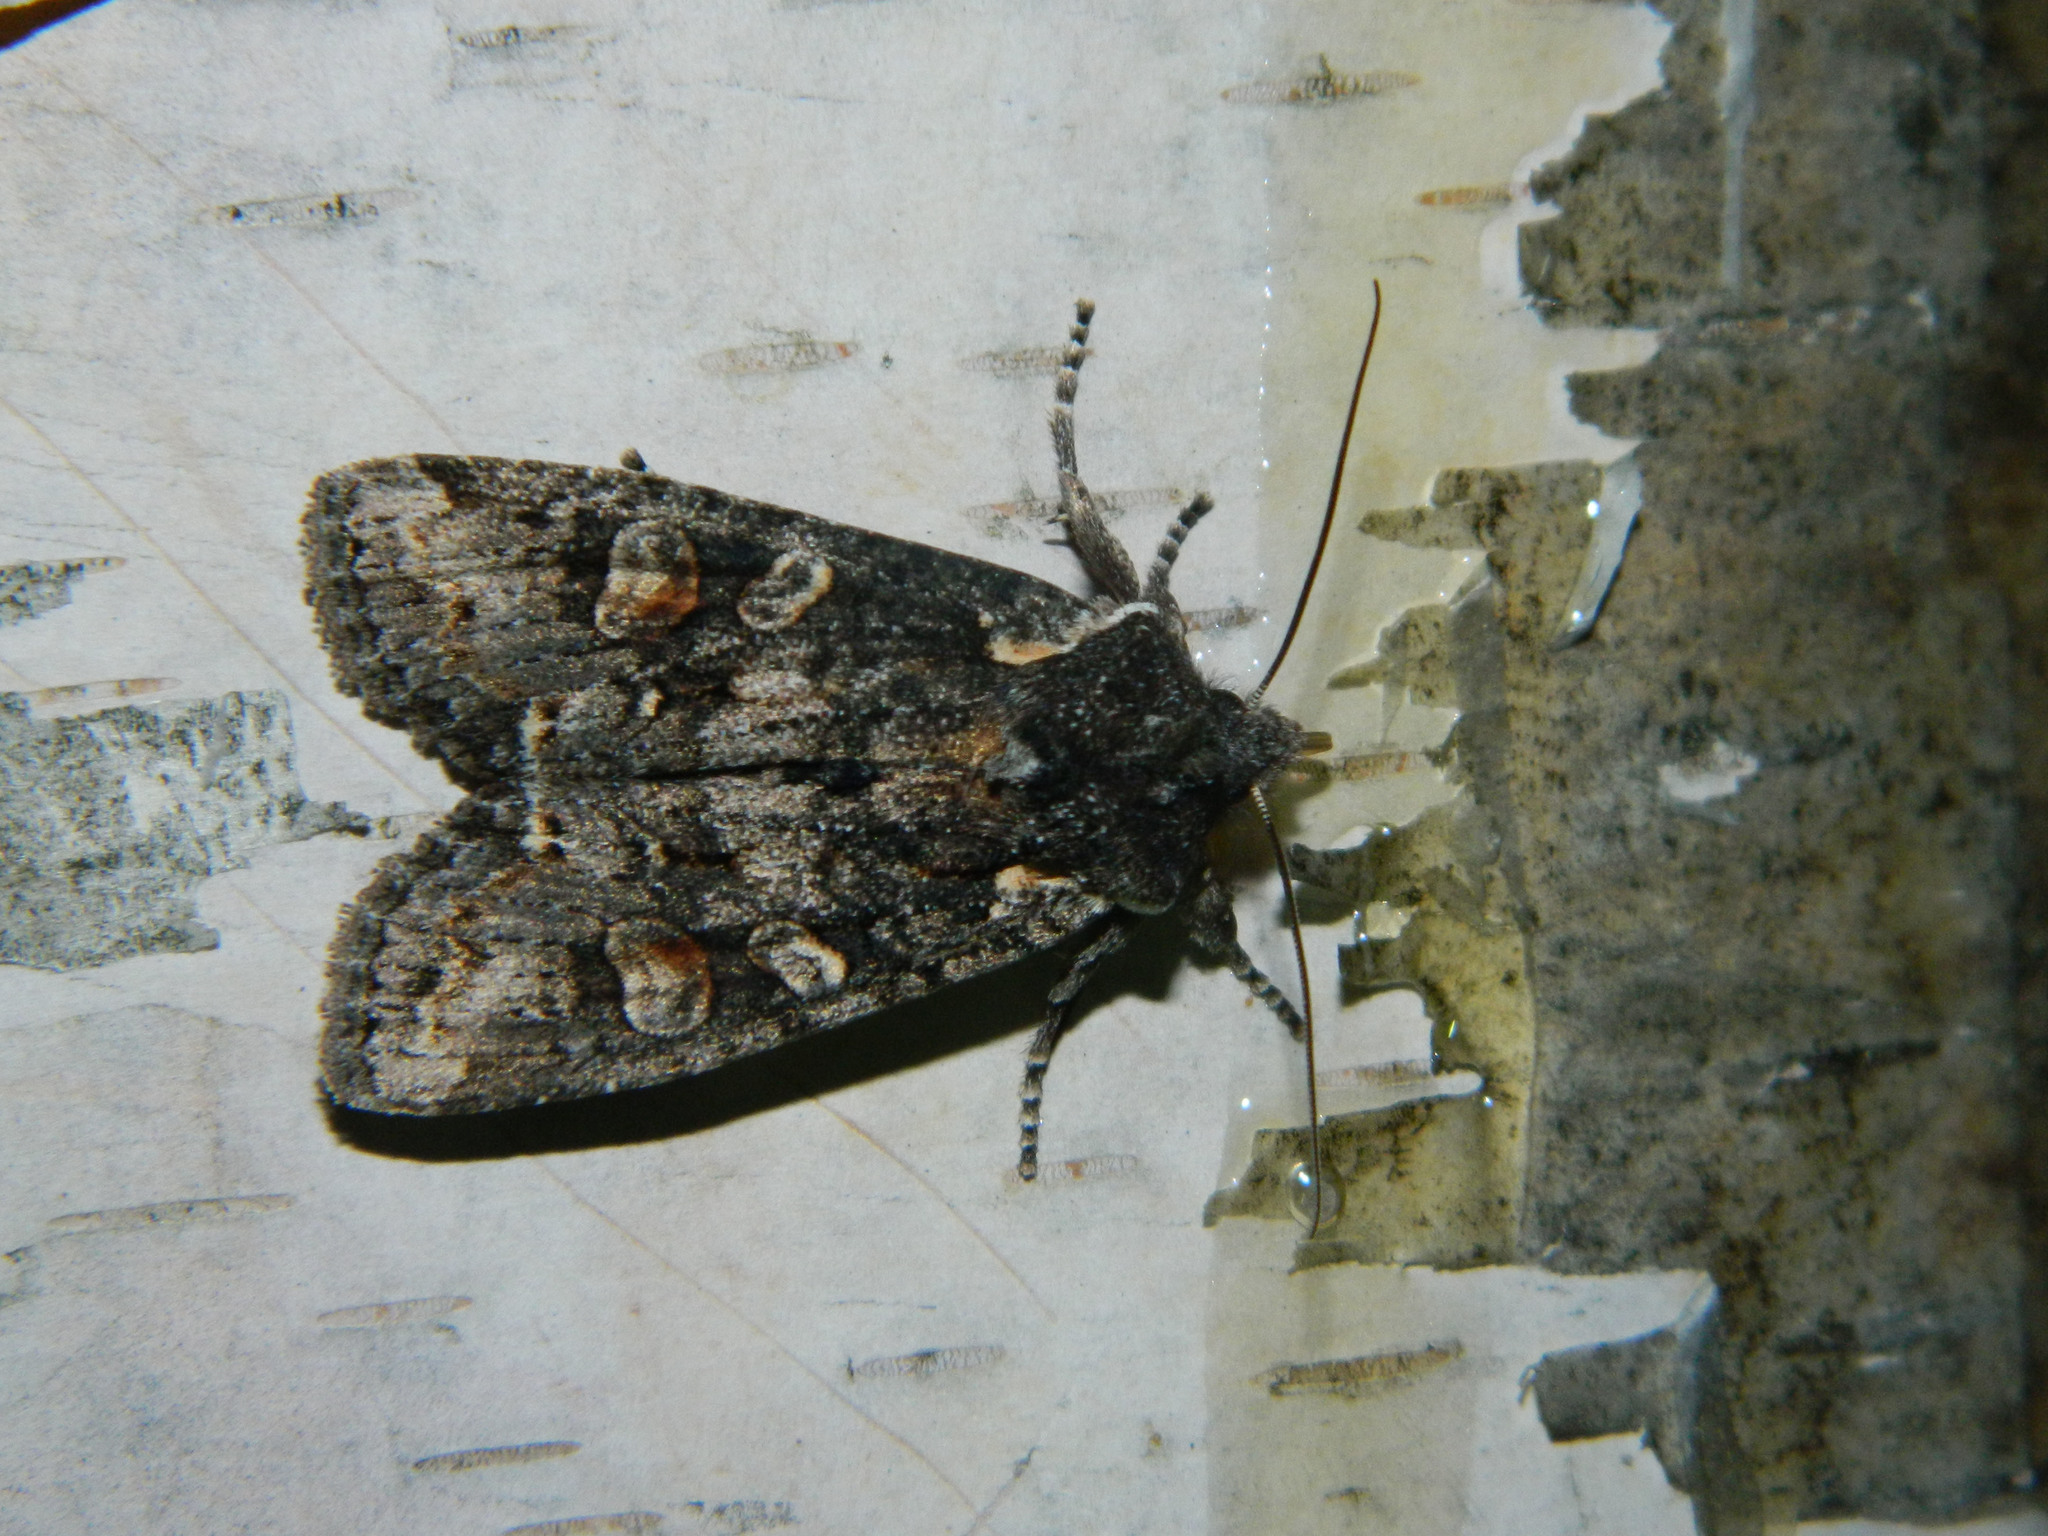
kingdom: Animalia
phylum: Arthropoda
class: Insecta
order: Lepidoptera
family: Noctuidae
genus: Lithophane
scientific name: Lithophane pexata
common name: Plush-naped pinion moth
